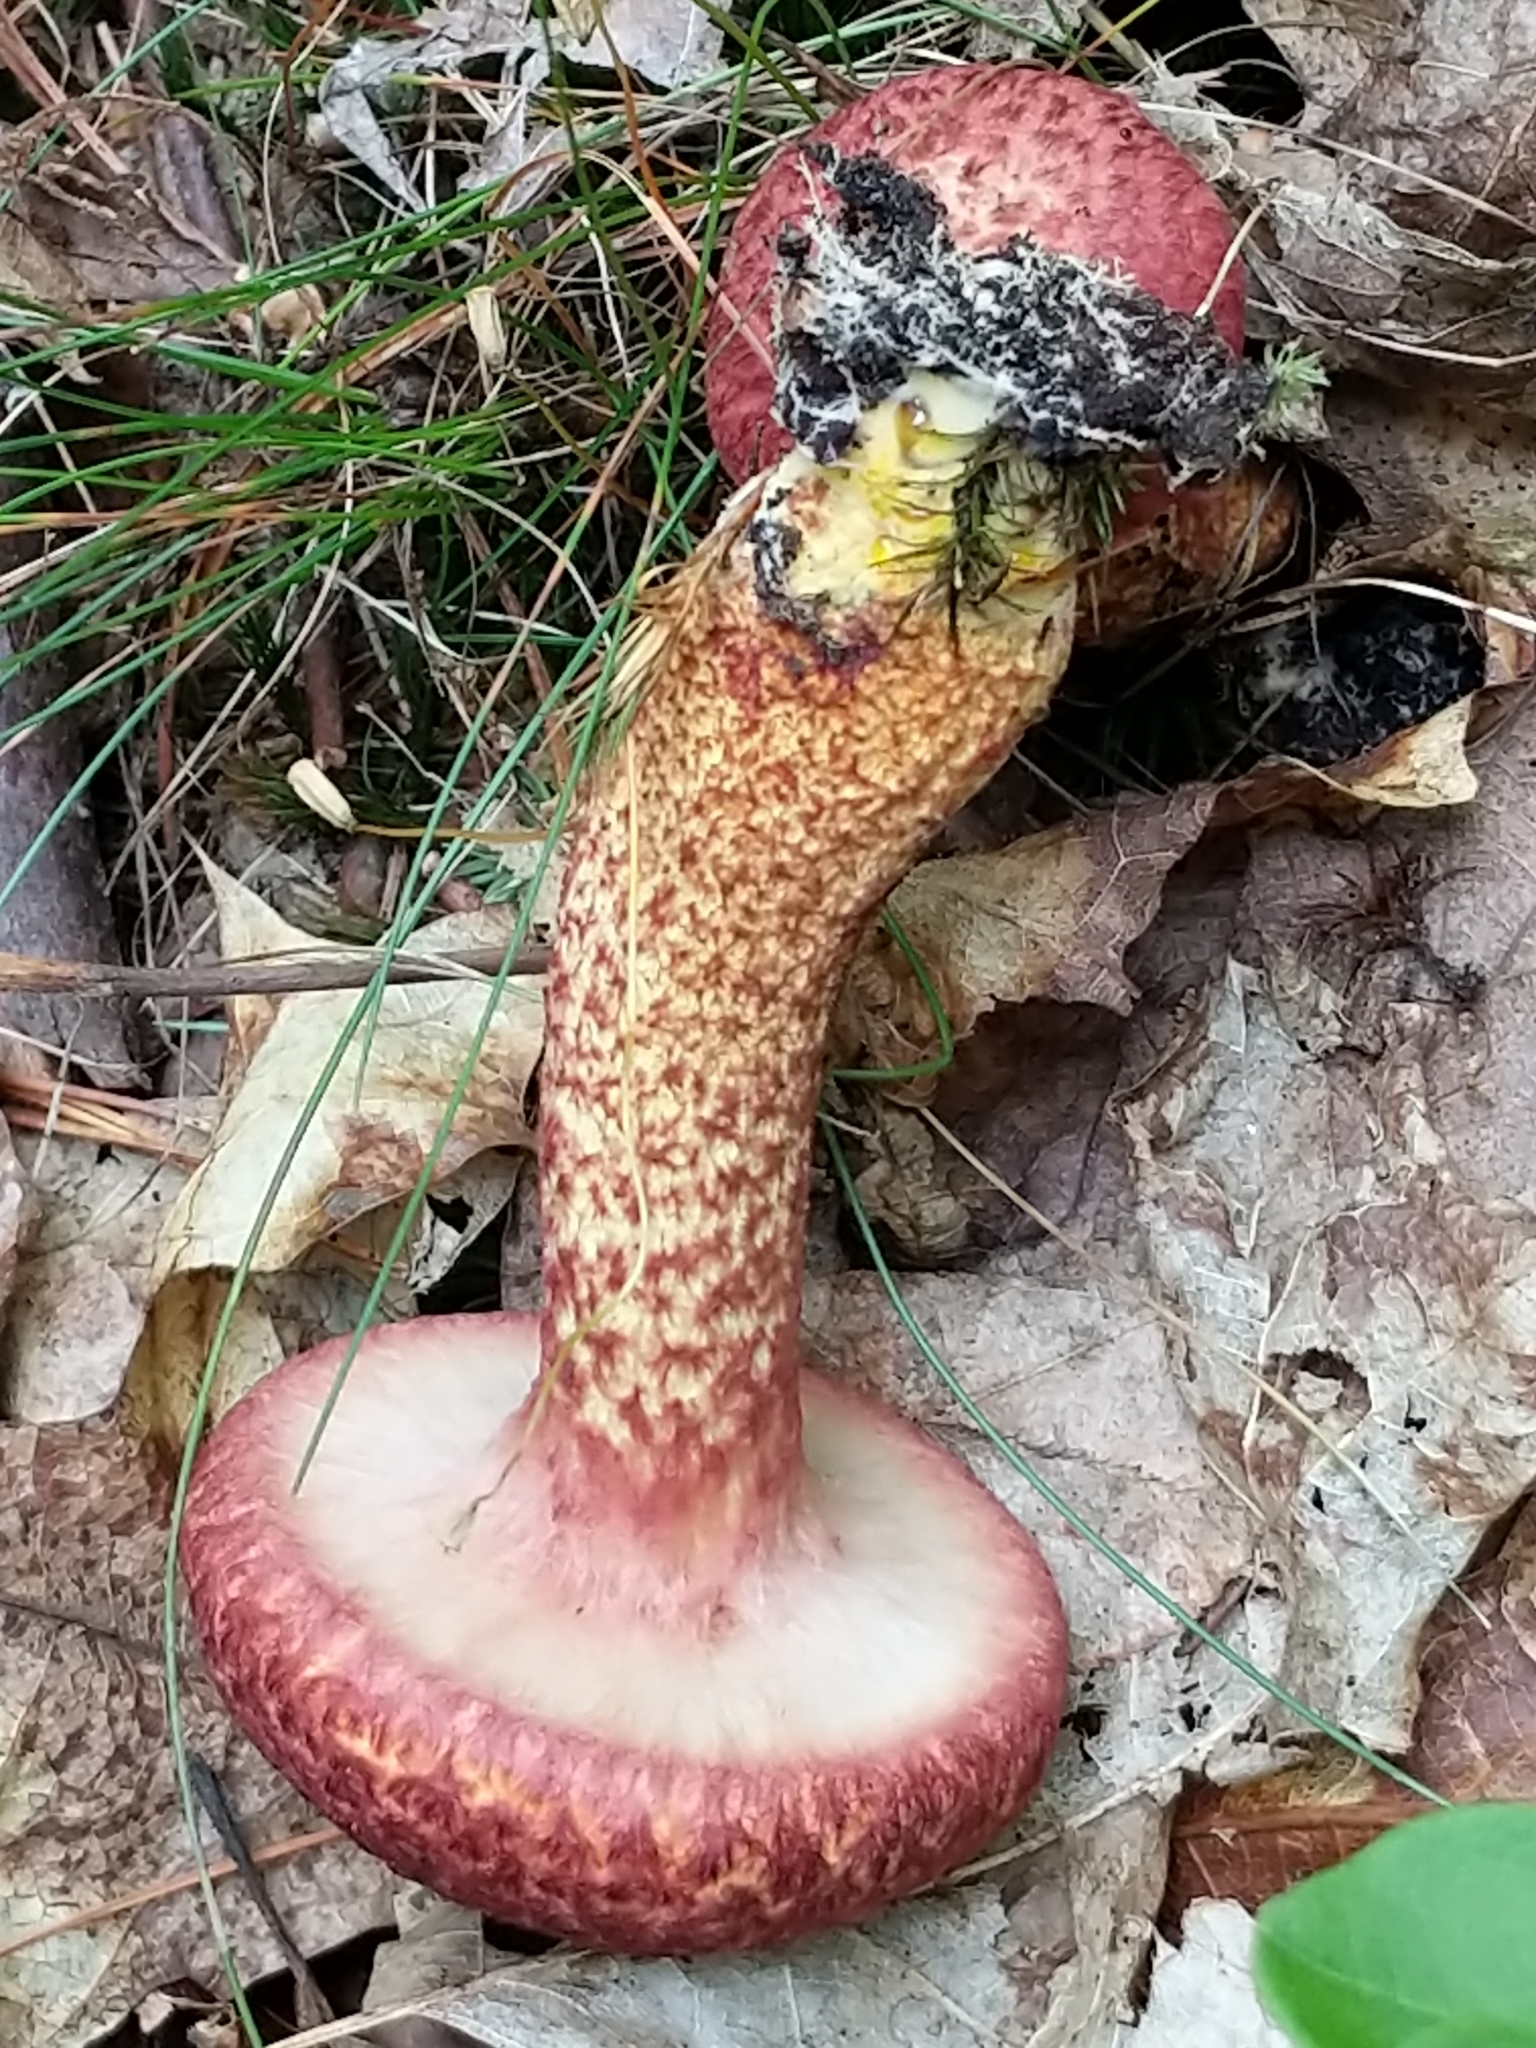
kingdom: Fungi
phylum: Basidiomycota
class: Agaricomycetes
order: Boletales
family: Suillaceae
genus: Suillus
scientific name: Suillus spraguei
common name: Painted suillus
